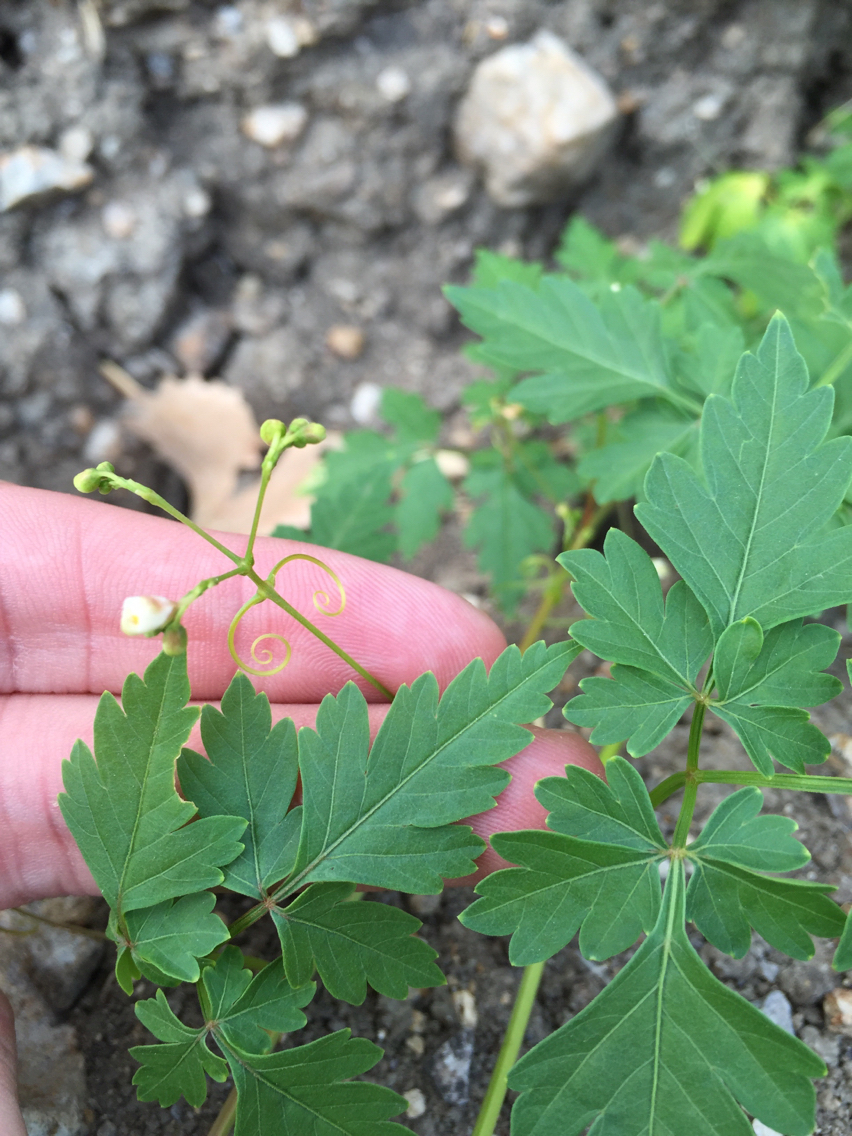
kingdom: Plantae
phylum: Tracheophyta
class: Magnoliopsida
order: Sapindales
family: Sapindaceae
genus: Cardiospermum
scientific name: Cardiospermum halicacabum
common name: Balloon vine
